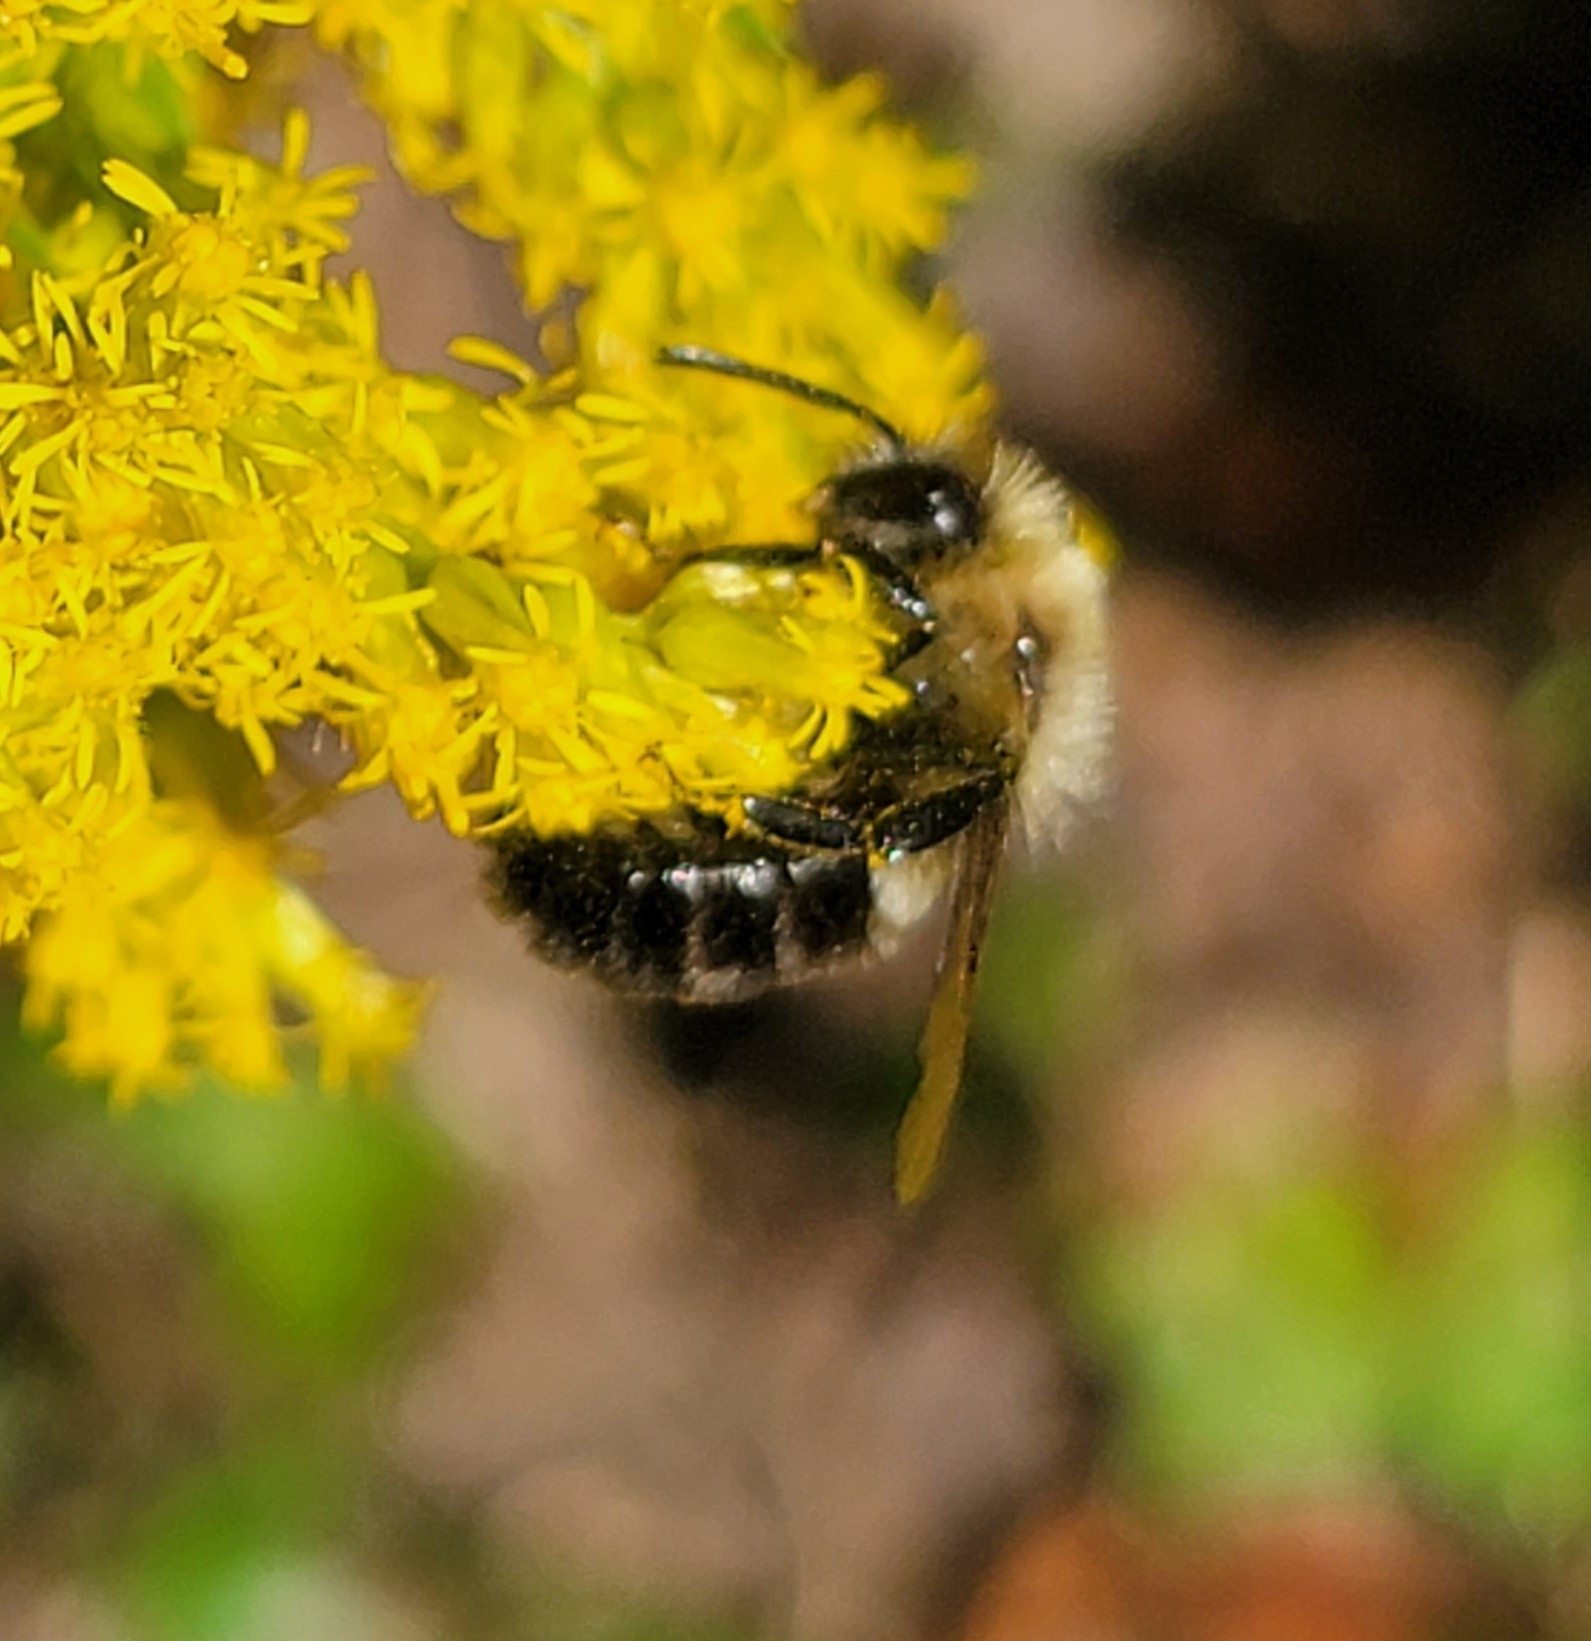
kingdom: Animalia
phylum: Arthropoda
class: Insecta
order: Hymenoptera
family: Apidae
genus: Bombus
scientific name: Bombus impatiens
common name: Common eastern bumble bee
